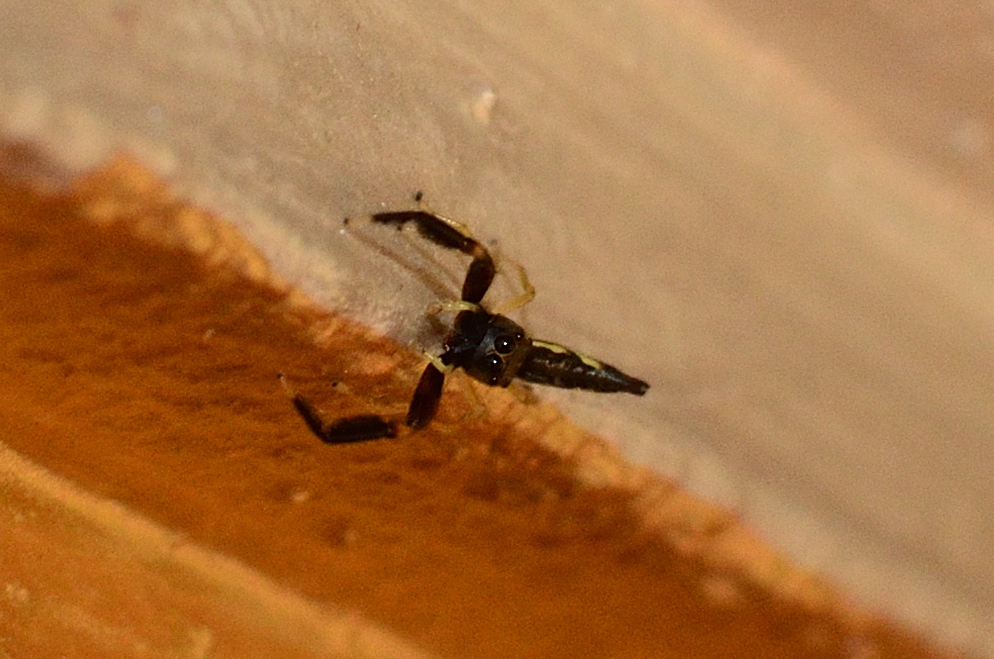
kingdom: Animalia
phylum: Arthropoda
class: Arachnida
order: Araneae
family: Salticidae
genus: Indopadilla
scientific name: Indopadilla insularis
